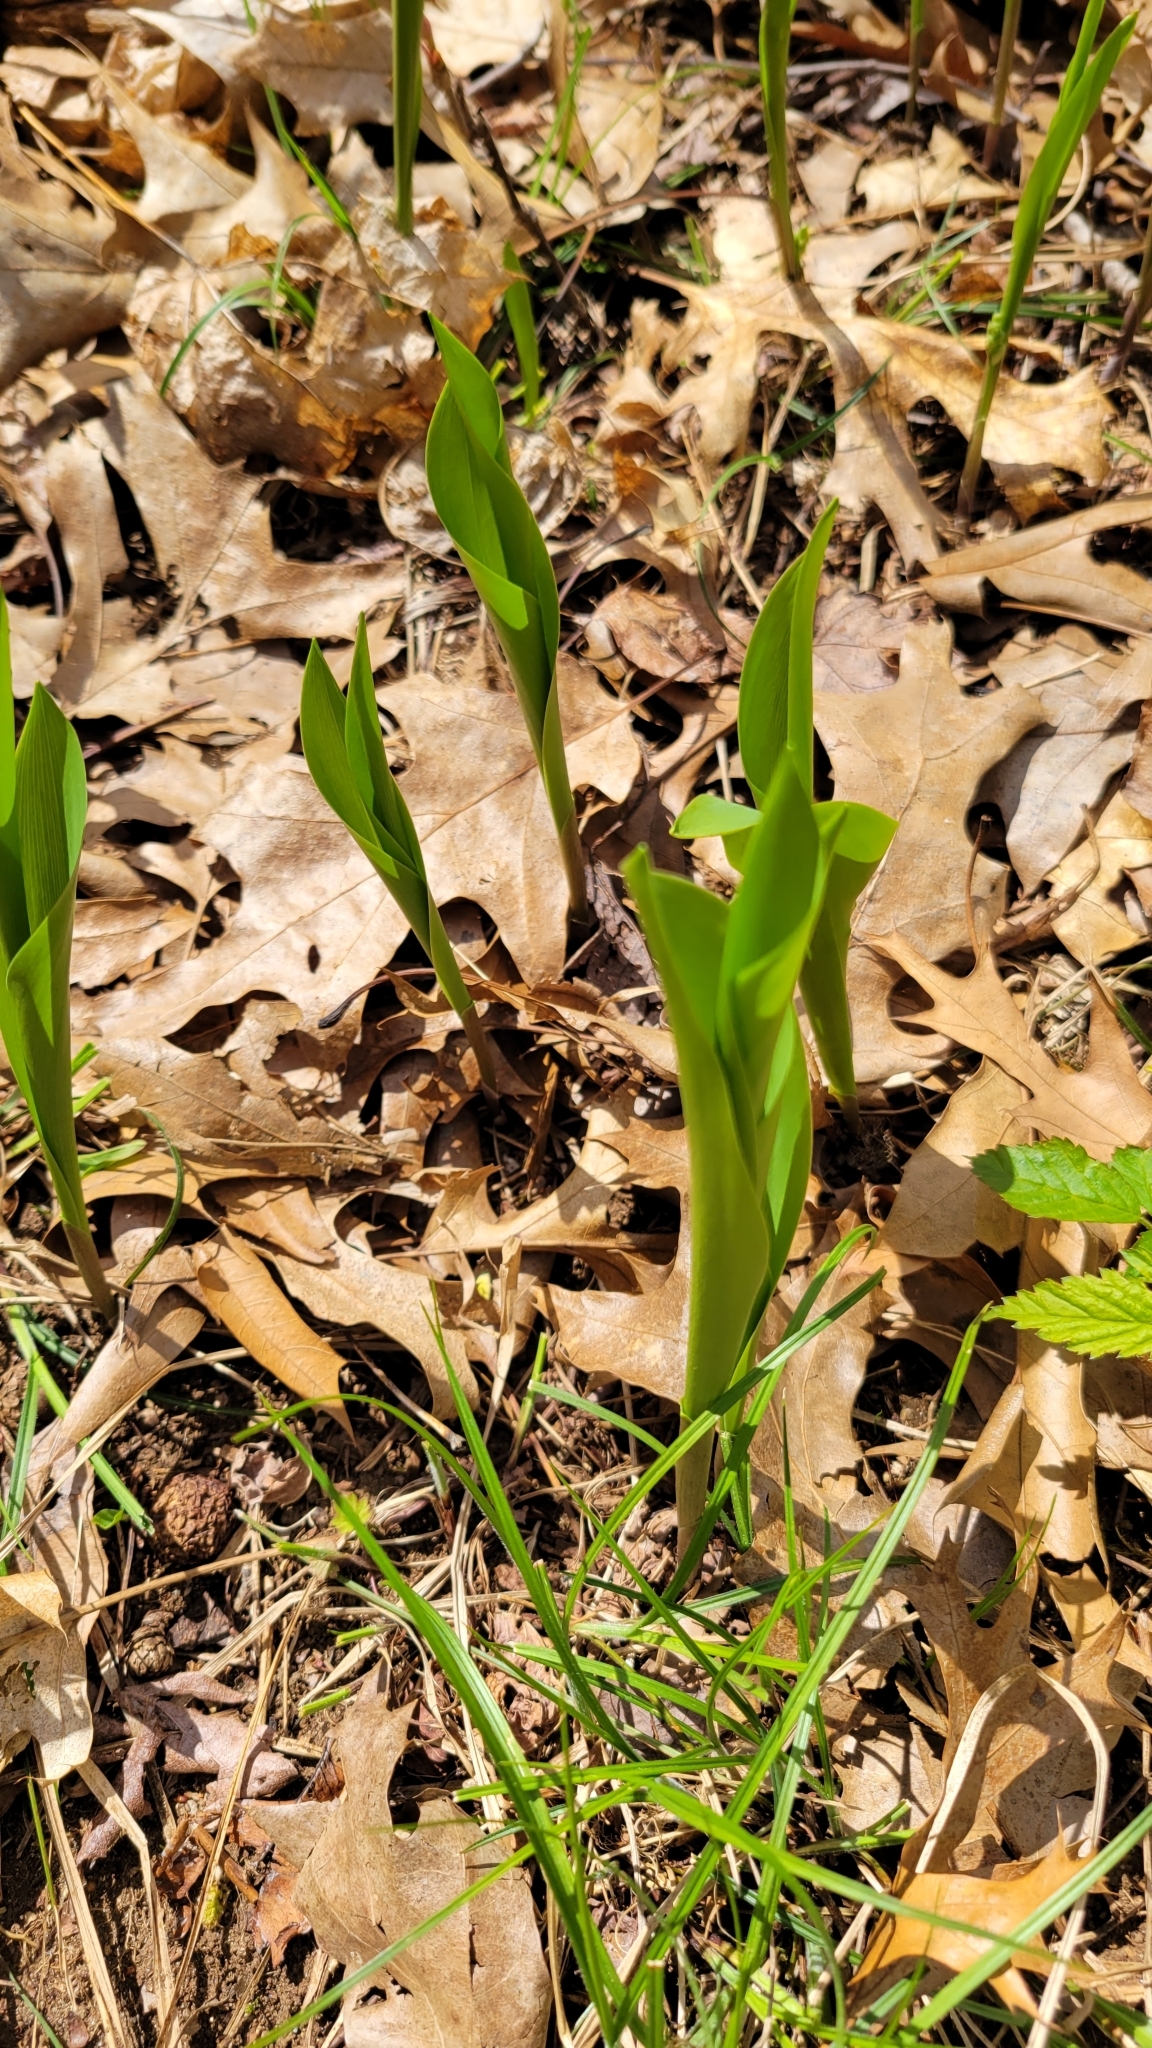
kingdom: Plantae
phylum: Tracheophyta
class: Liliopsida
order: Asparagales
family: Asparagaceae
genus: Convallaria
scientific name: Convallaria majalis
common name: Lily-of-the-valley
